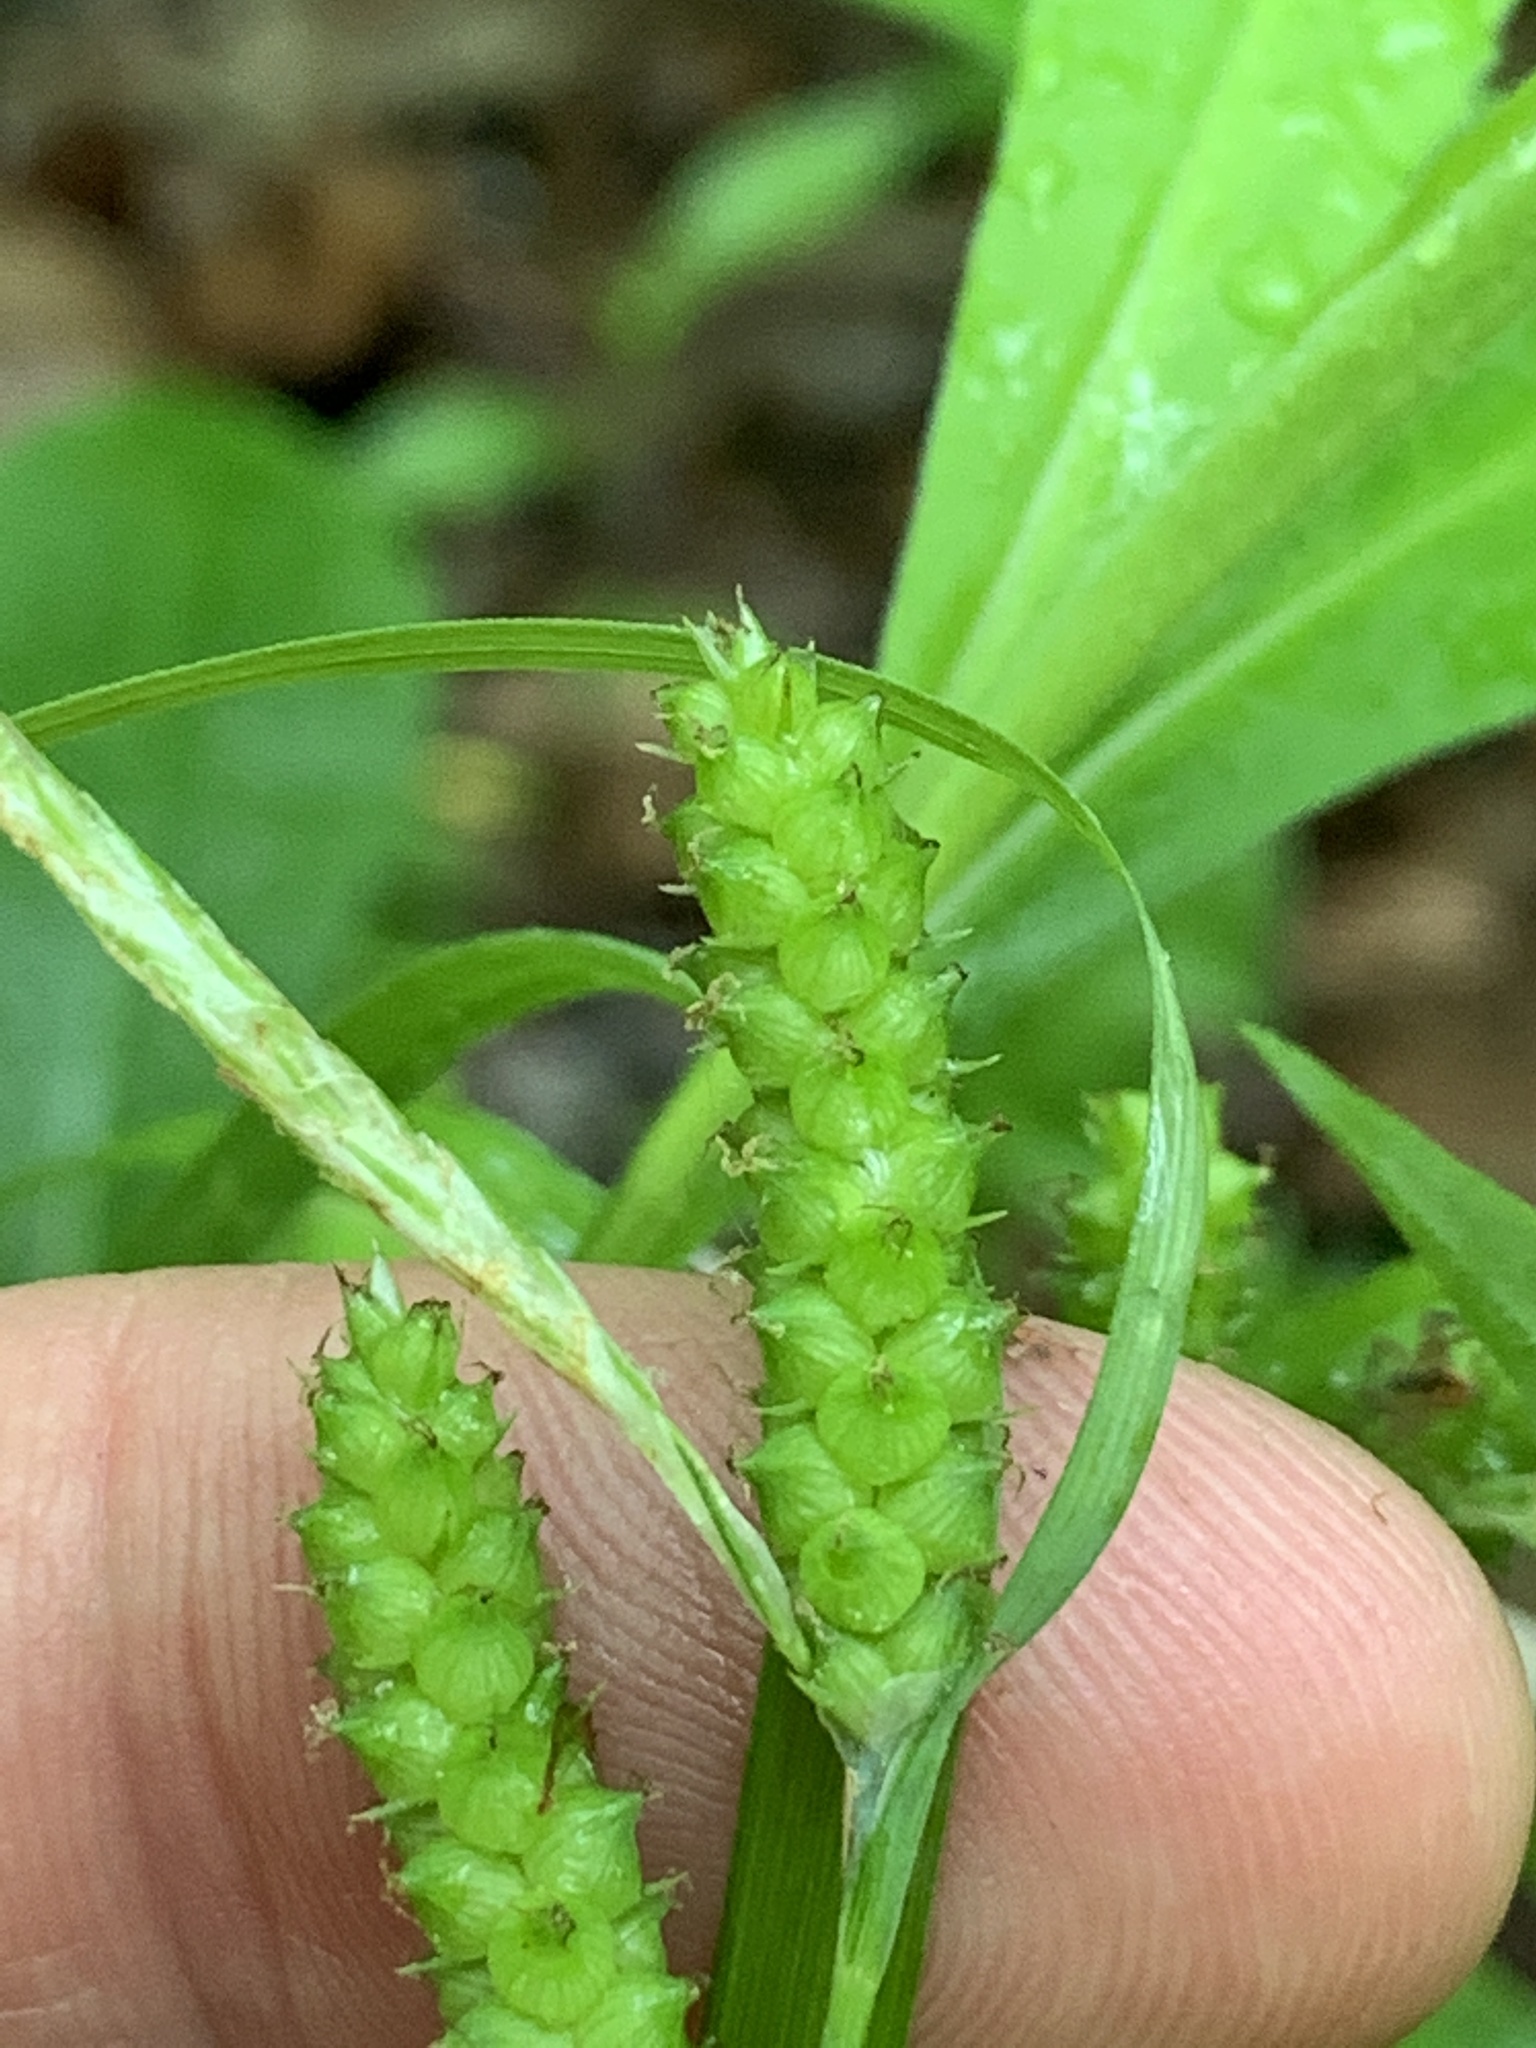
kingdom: Plantae
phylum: Tracheophyta
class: Liliopsida
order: Poales
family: Cyperaceae
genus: Carex
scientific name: Carex granularis
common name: Granular sedge
